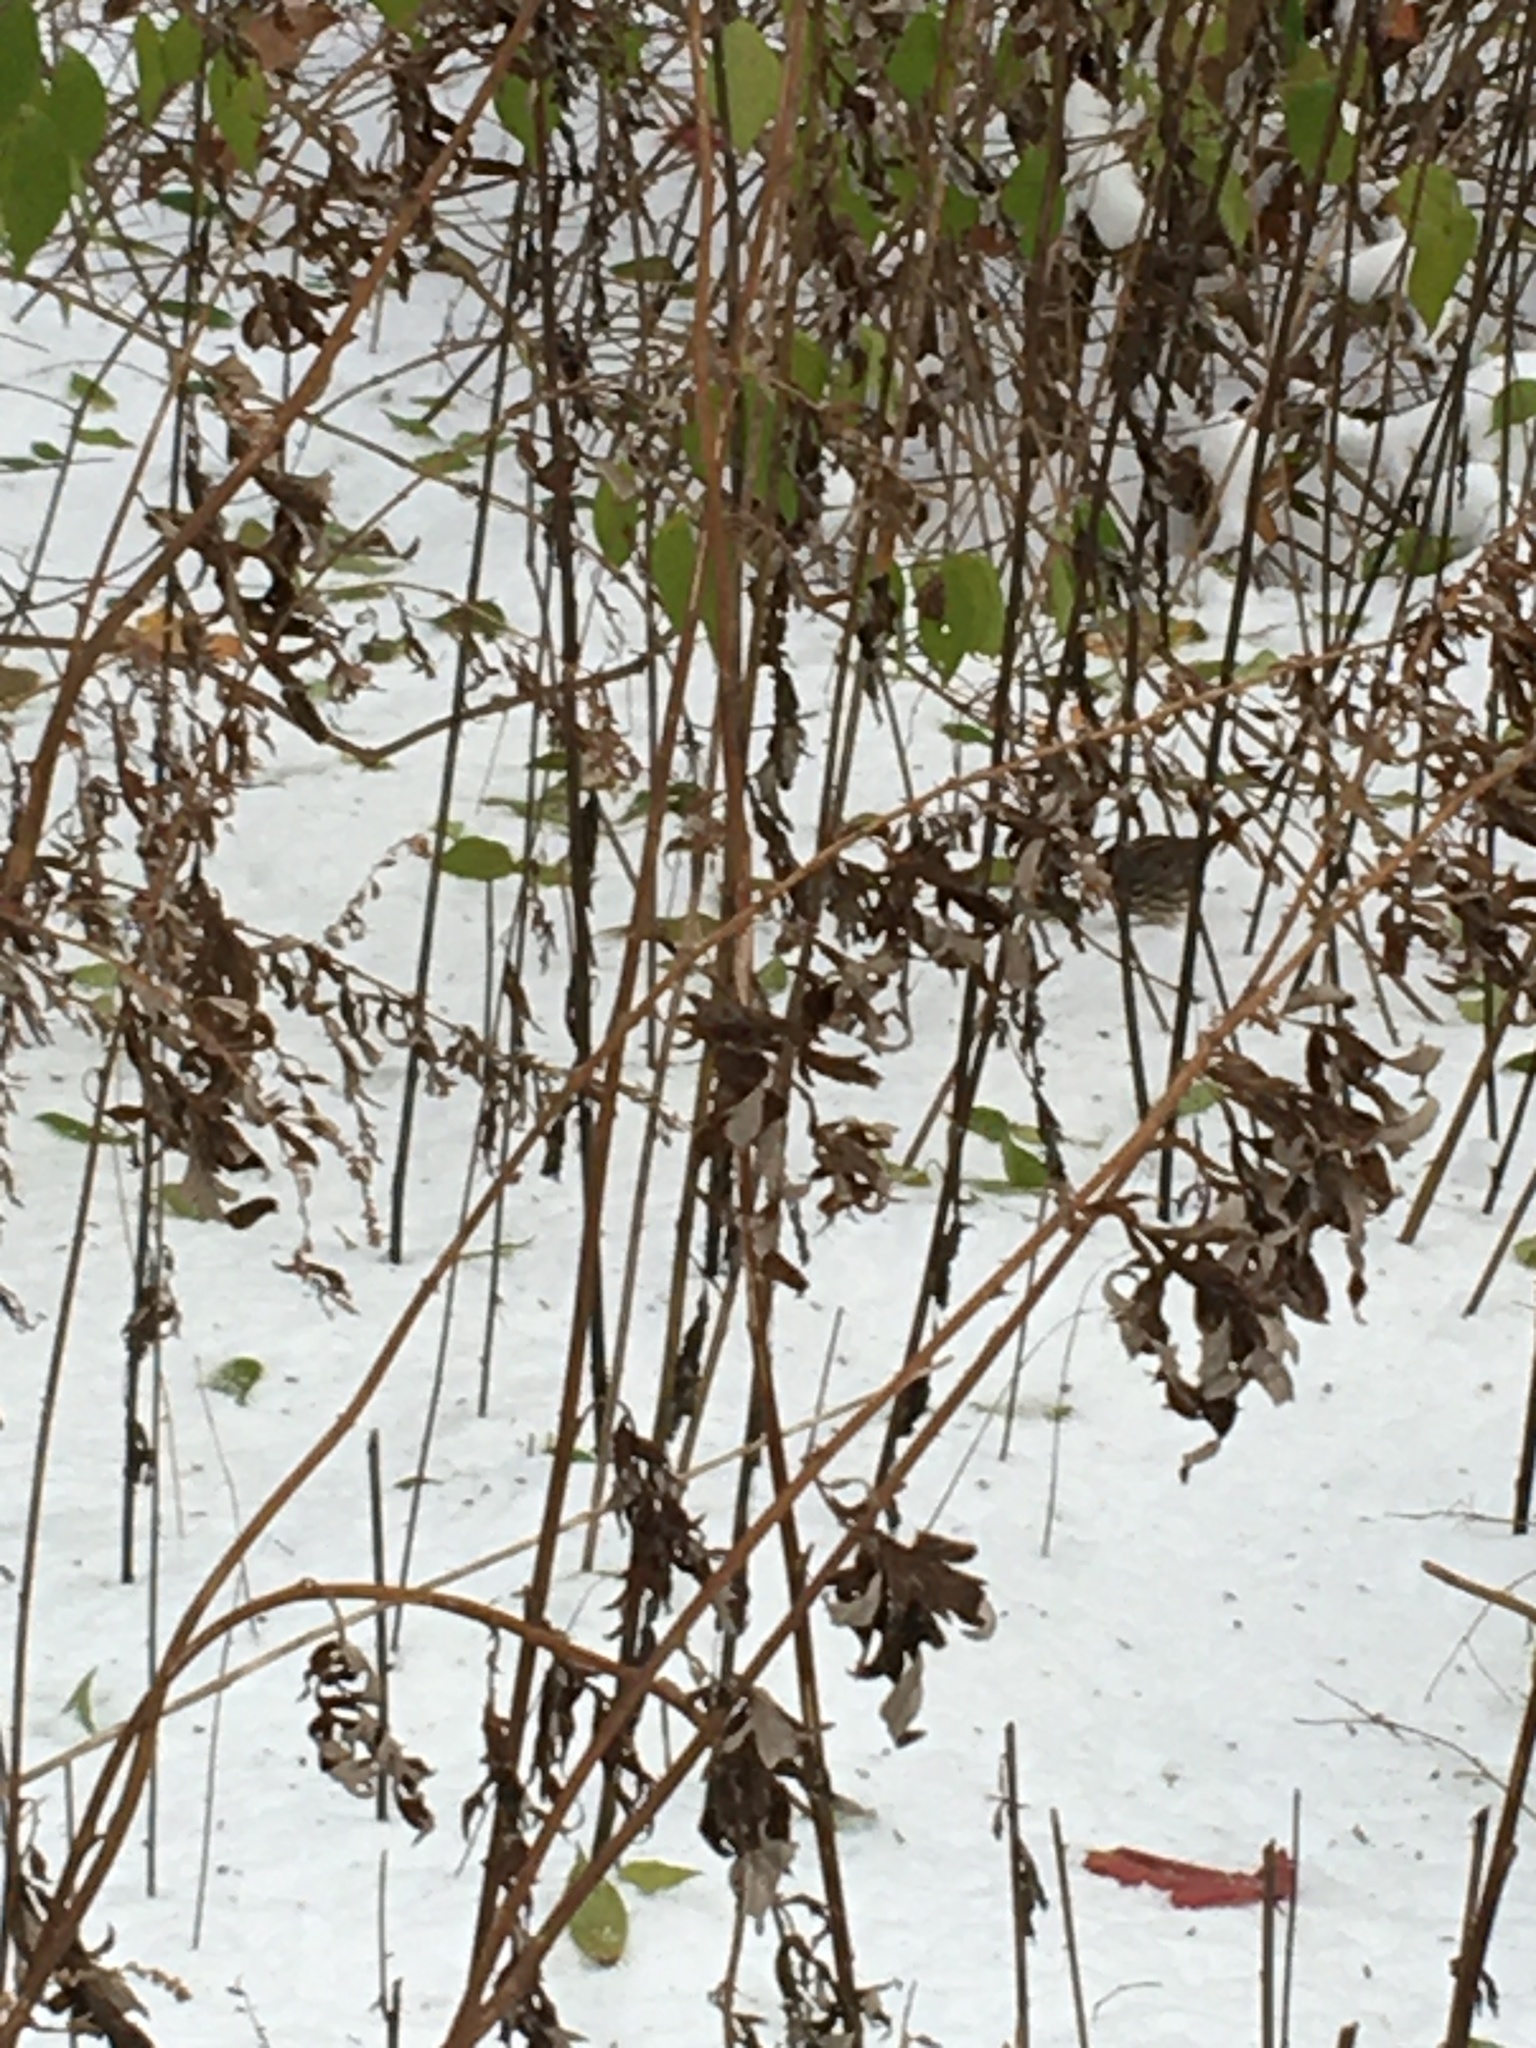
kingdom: Plantae
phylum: Tracheophyta
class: Magnoliopsida
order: Asterales
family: Asteraceae
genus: Artemisia
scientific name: Artemisia vulgaris
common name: Mugwort
